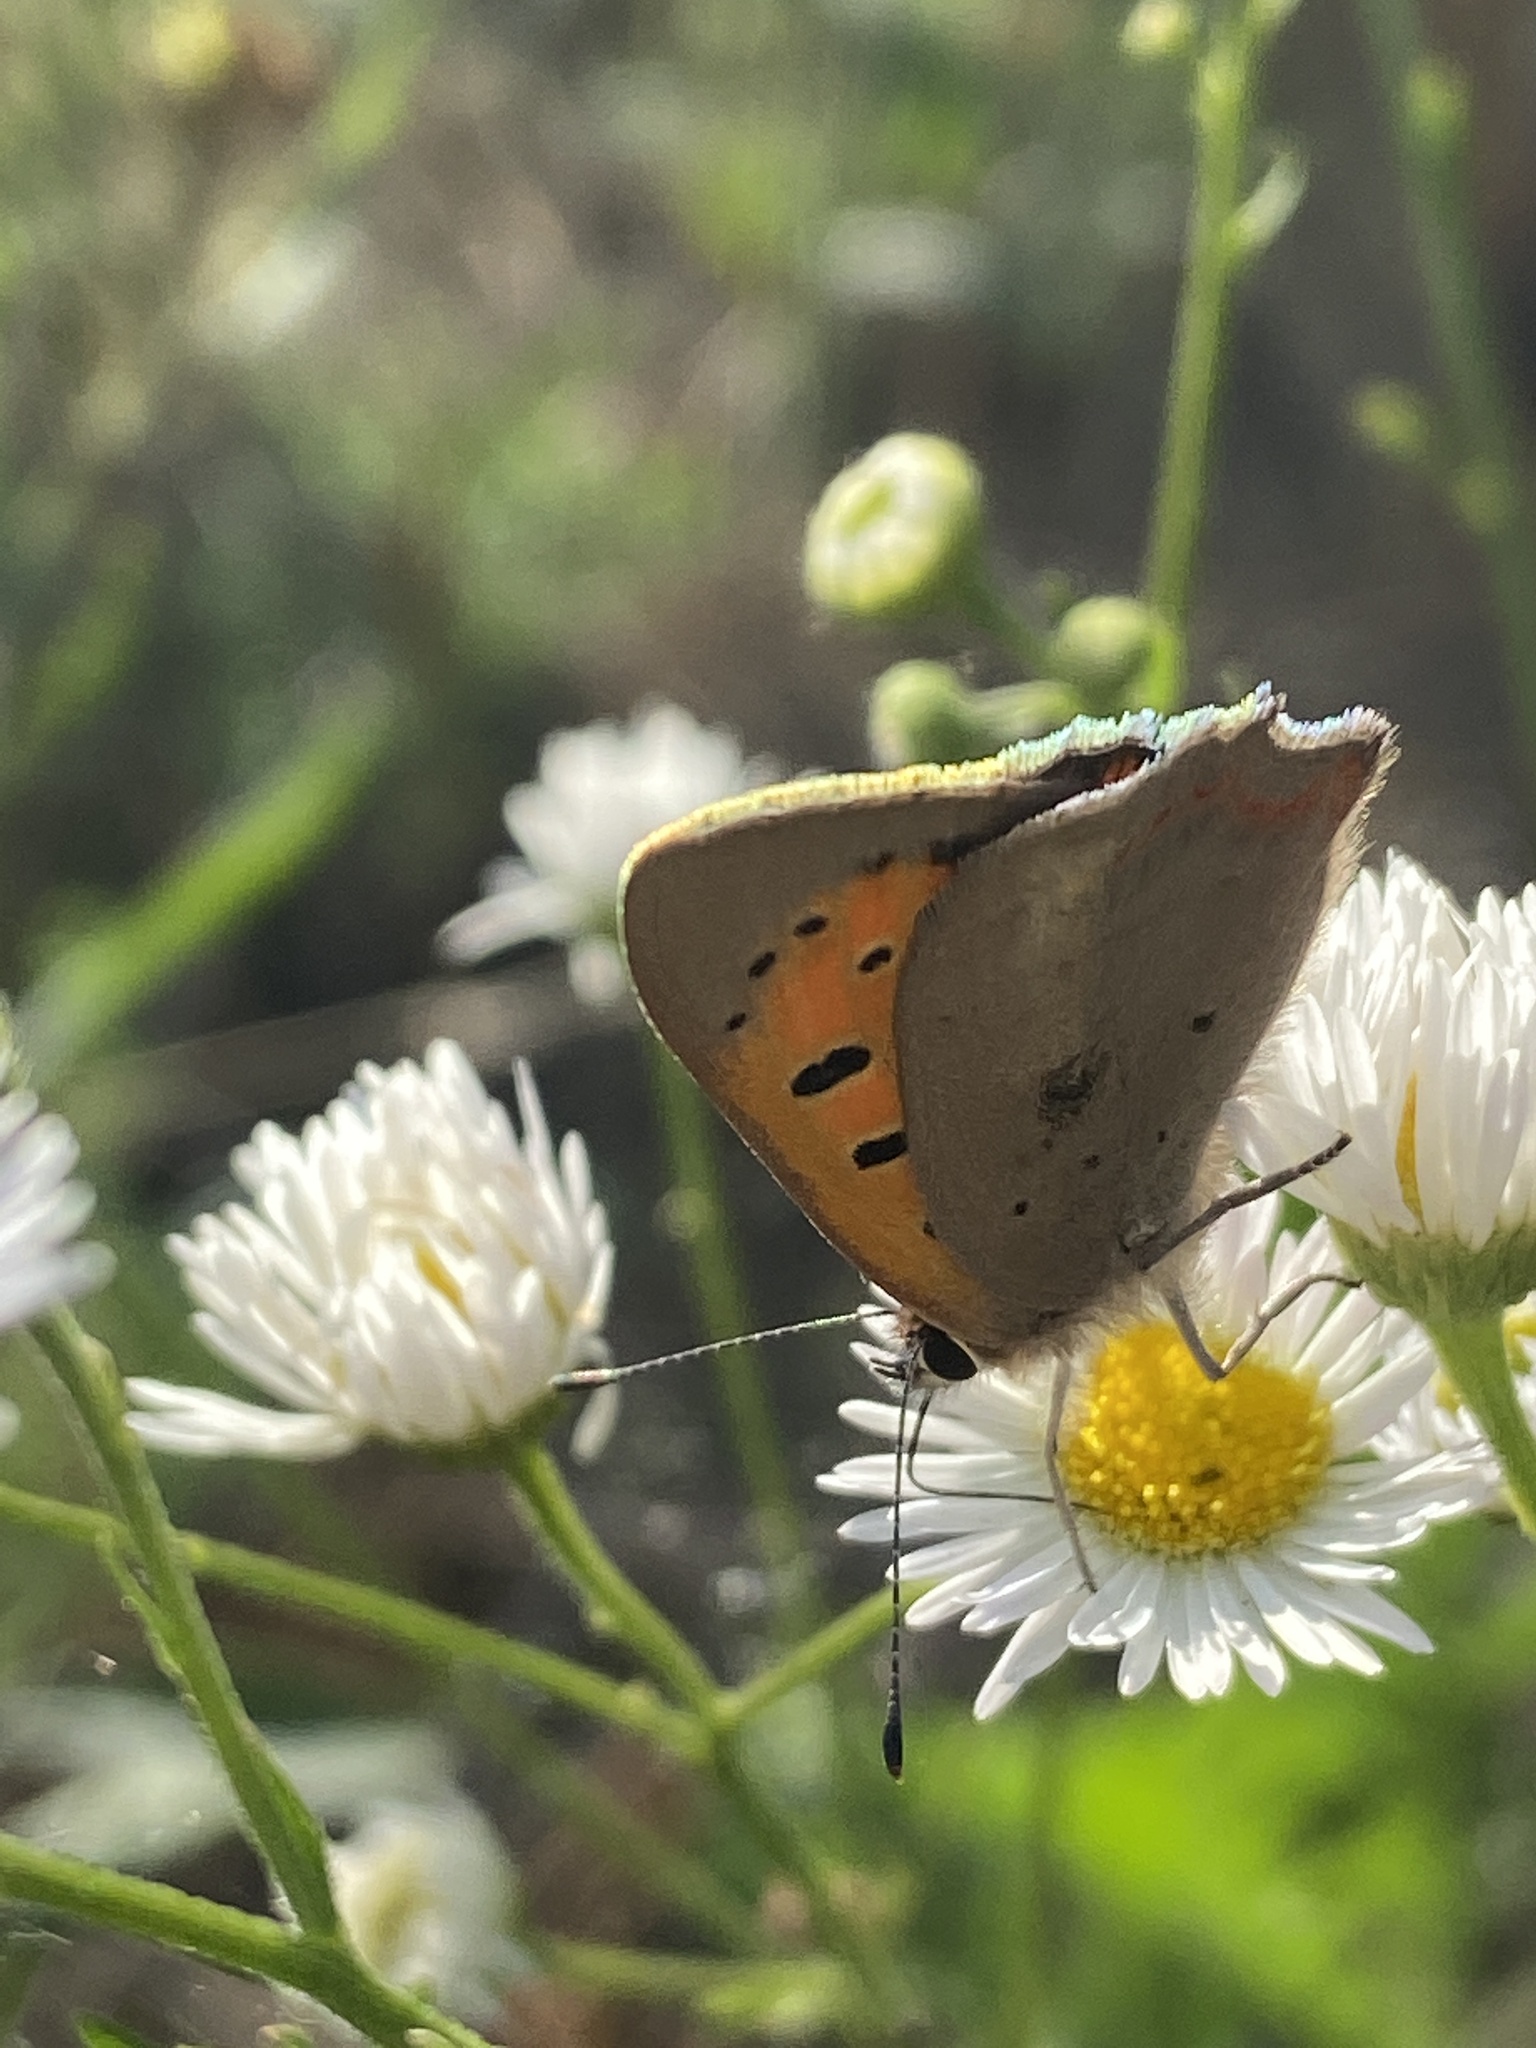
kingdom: Animalia
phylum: Arthropoda
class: Insecta
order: Lepidoptera
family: Lycaenidae
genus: Lycaena
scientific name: Lycaena phlaeas
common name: Small copper
